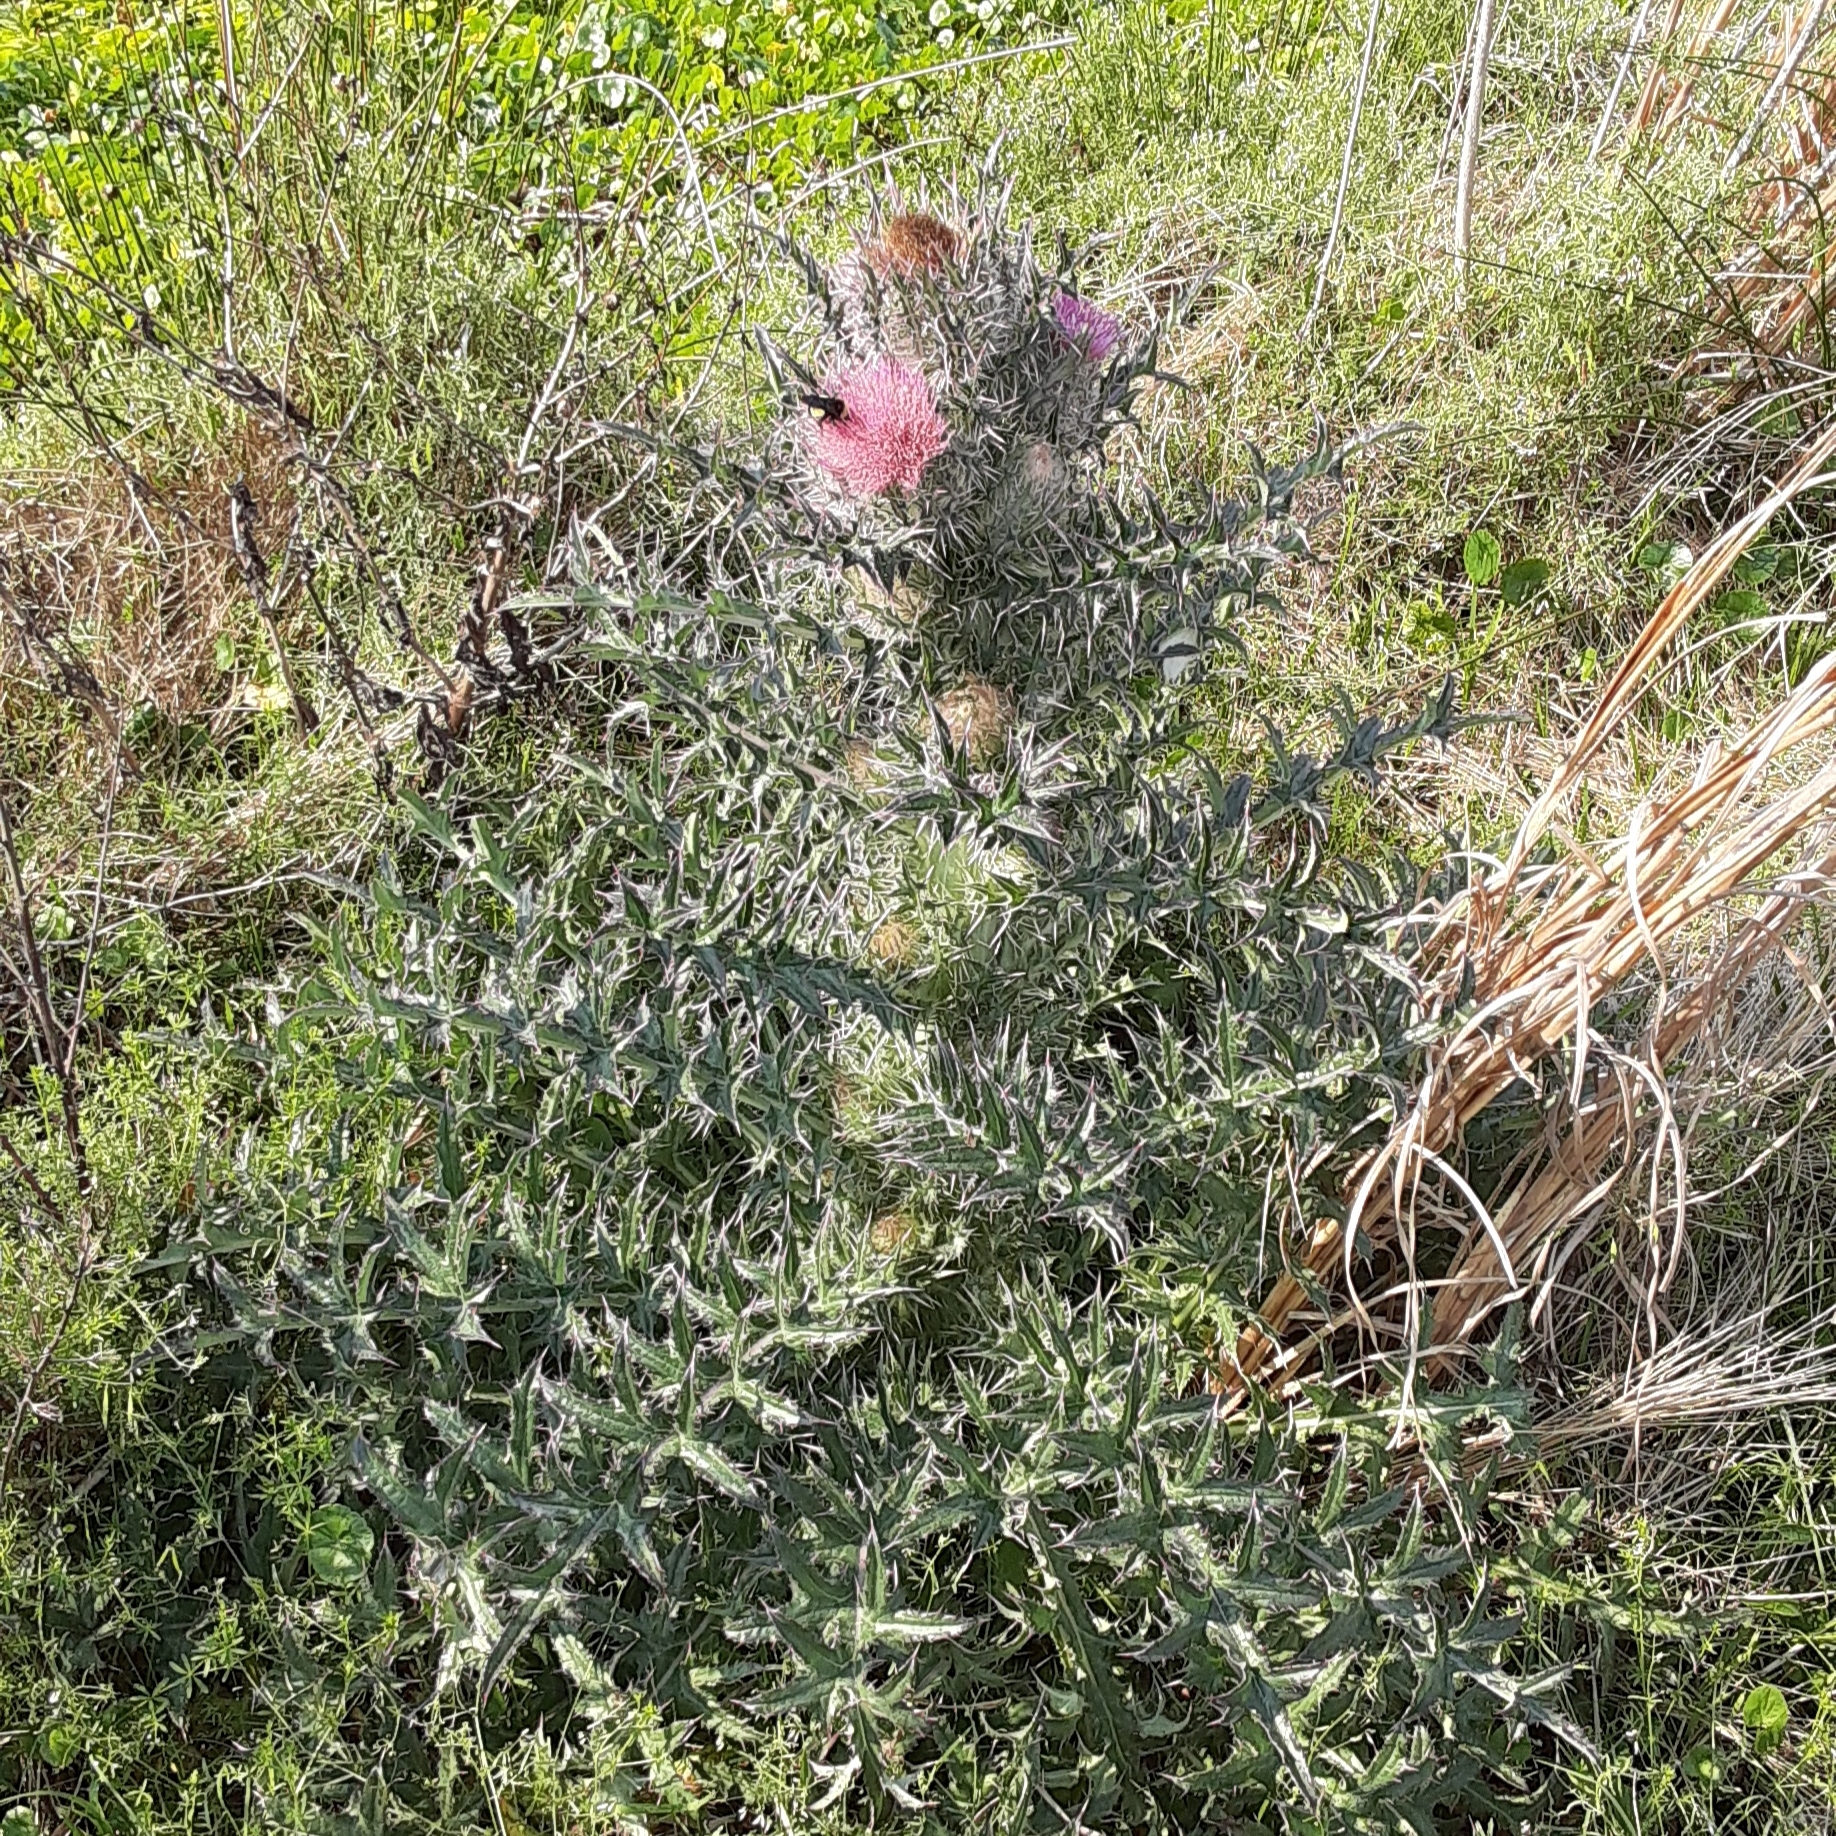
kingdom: Plantae
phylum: Tracheophyta
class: Magnoliopsida
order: Asterales
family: Asteraceae
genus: Cirsium
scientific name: Cirsium horridulum
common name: Bristly thistle
